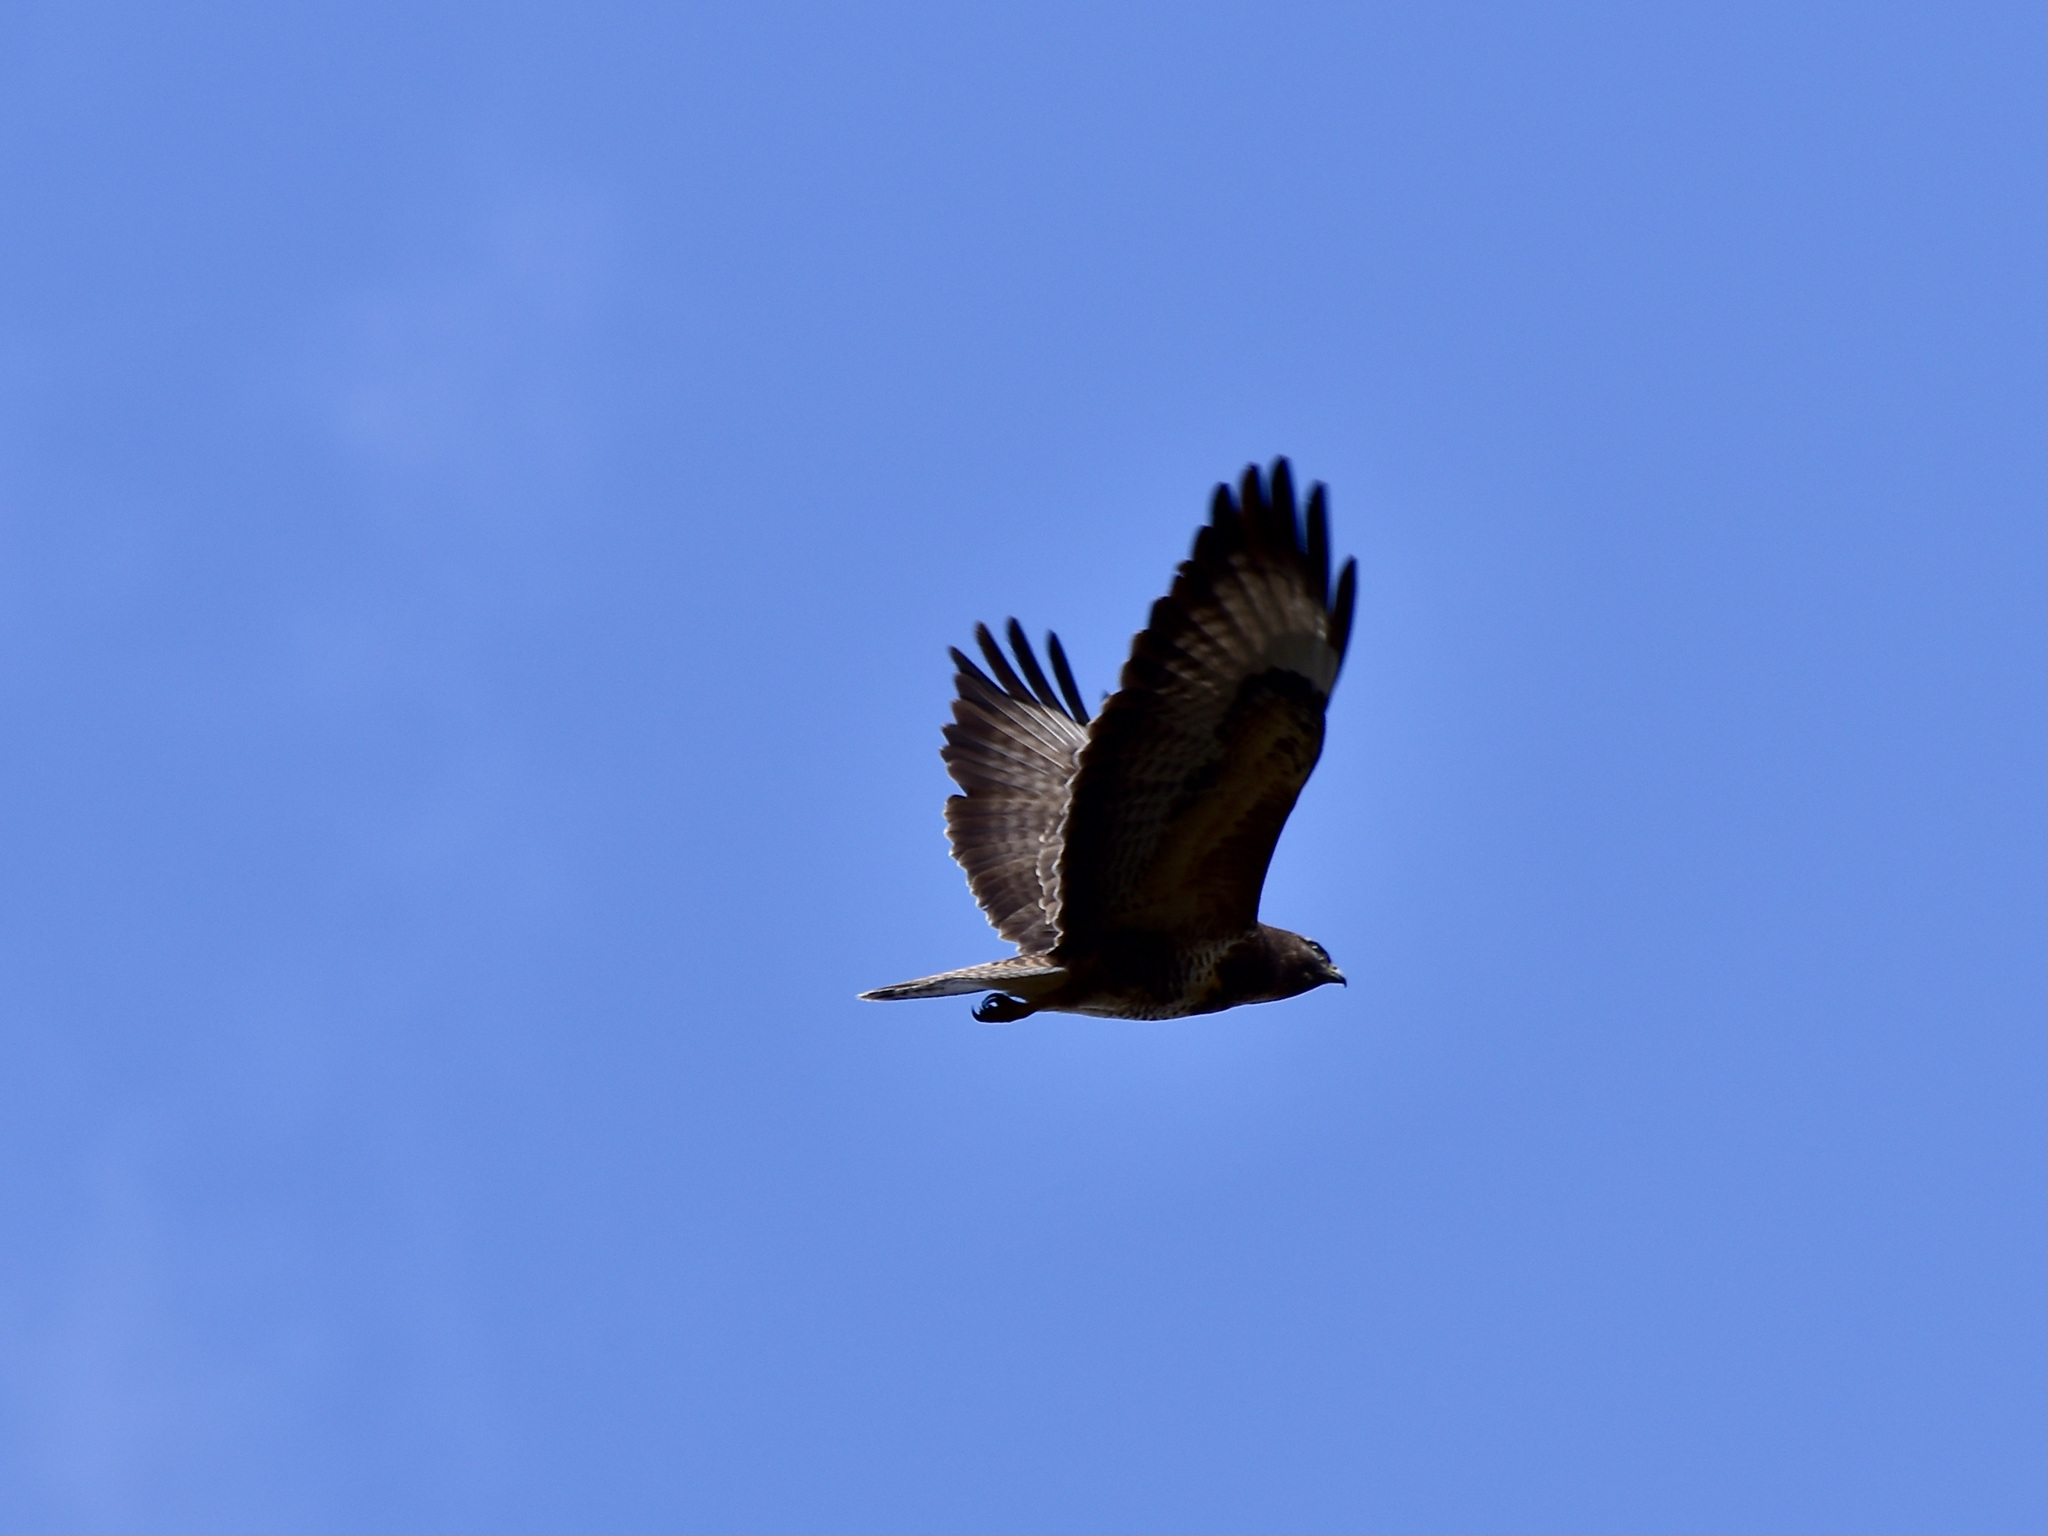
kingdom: Animalia
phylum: Chordata
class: Aves
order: Accipitriformes
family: Accipitridae
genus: Buteo
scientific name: Buteo buteo
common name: Common buzzard
